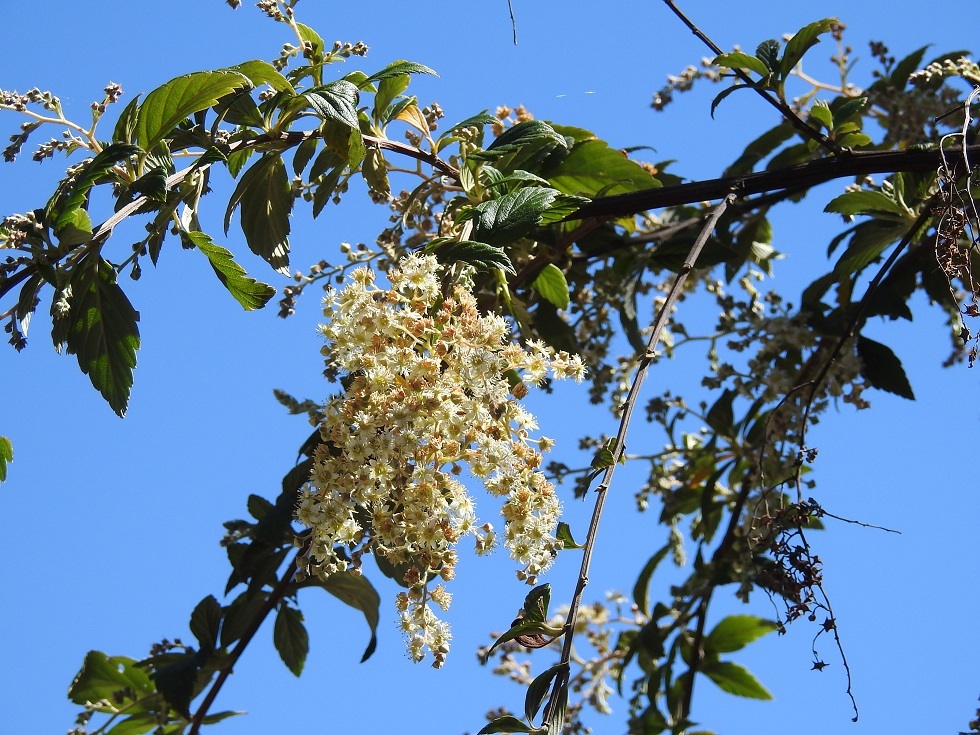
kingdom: Plantae
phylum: Tracheophyta
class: Magnoliopsida
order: Rosales
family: Rosaceae
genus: Holodiscus
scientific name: Holodiscus argenteus
